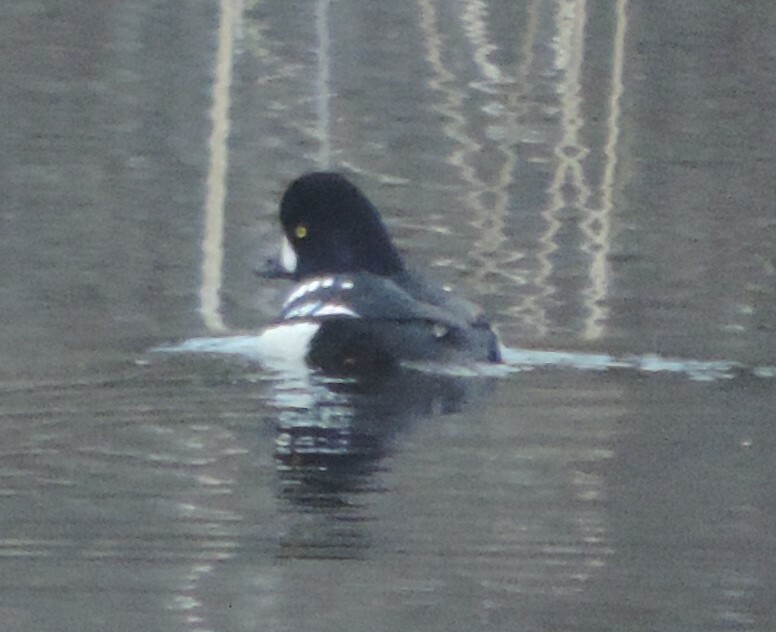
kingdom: Animalia
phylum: Chordata
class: Aves
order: Anseriformes
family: Anatidae
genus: Bucephala
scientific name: Bucephala islandica
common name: Barrow's goldeneye
